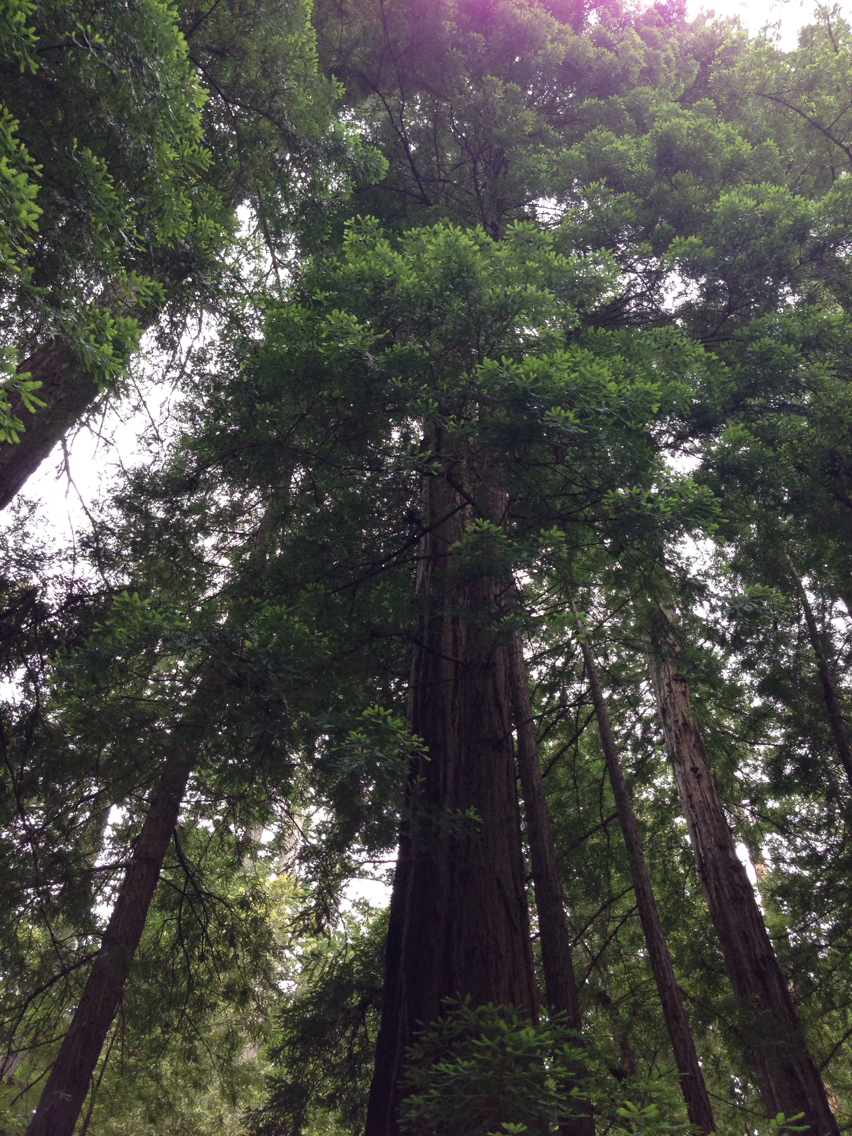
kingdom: Plantae
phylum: Tracheophyta
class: Pinopsida
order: Pinales
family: Cupressaceae
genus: Sequoia
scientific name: Sequoia sempervirens
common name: Coast redwood
